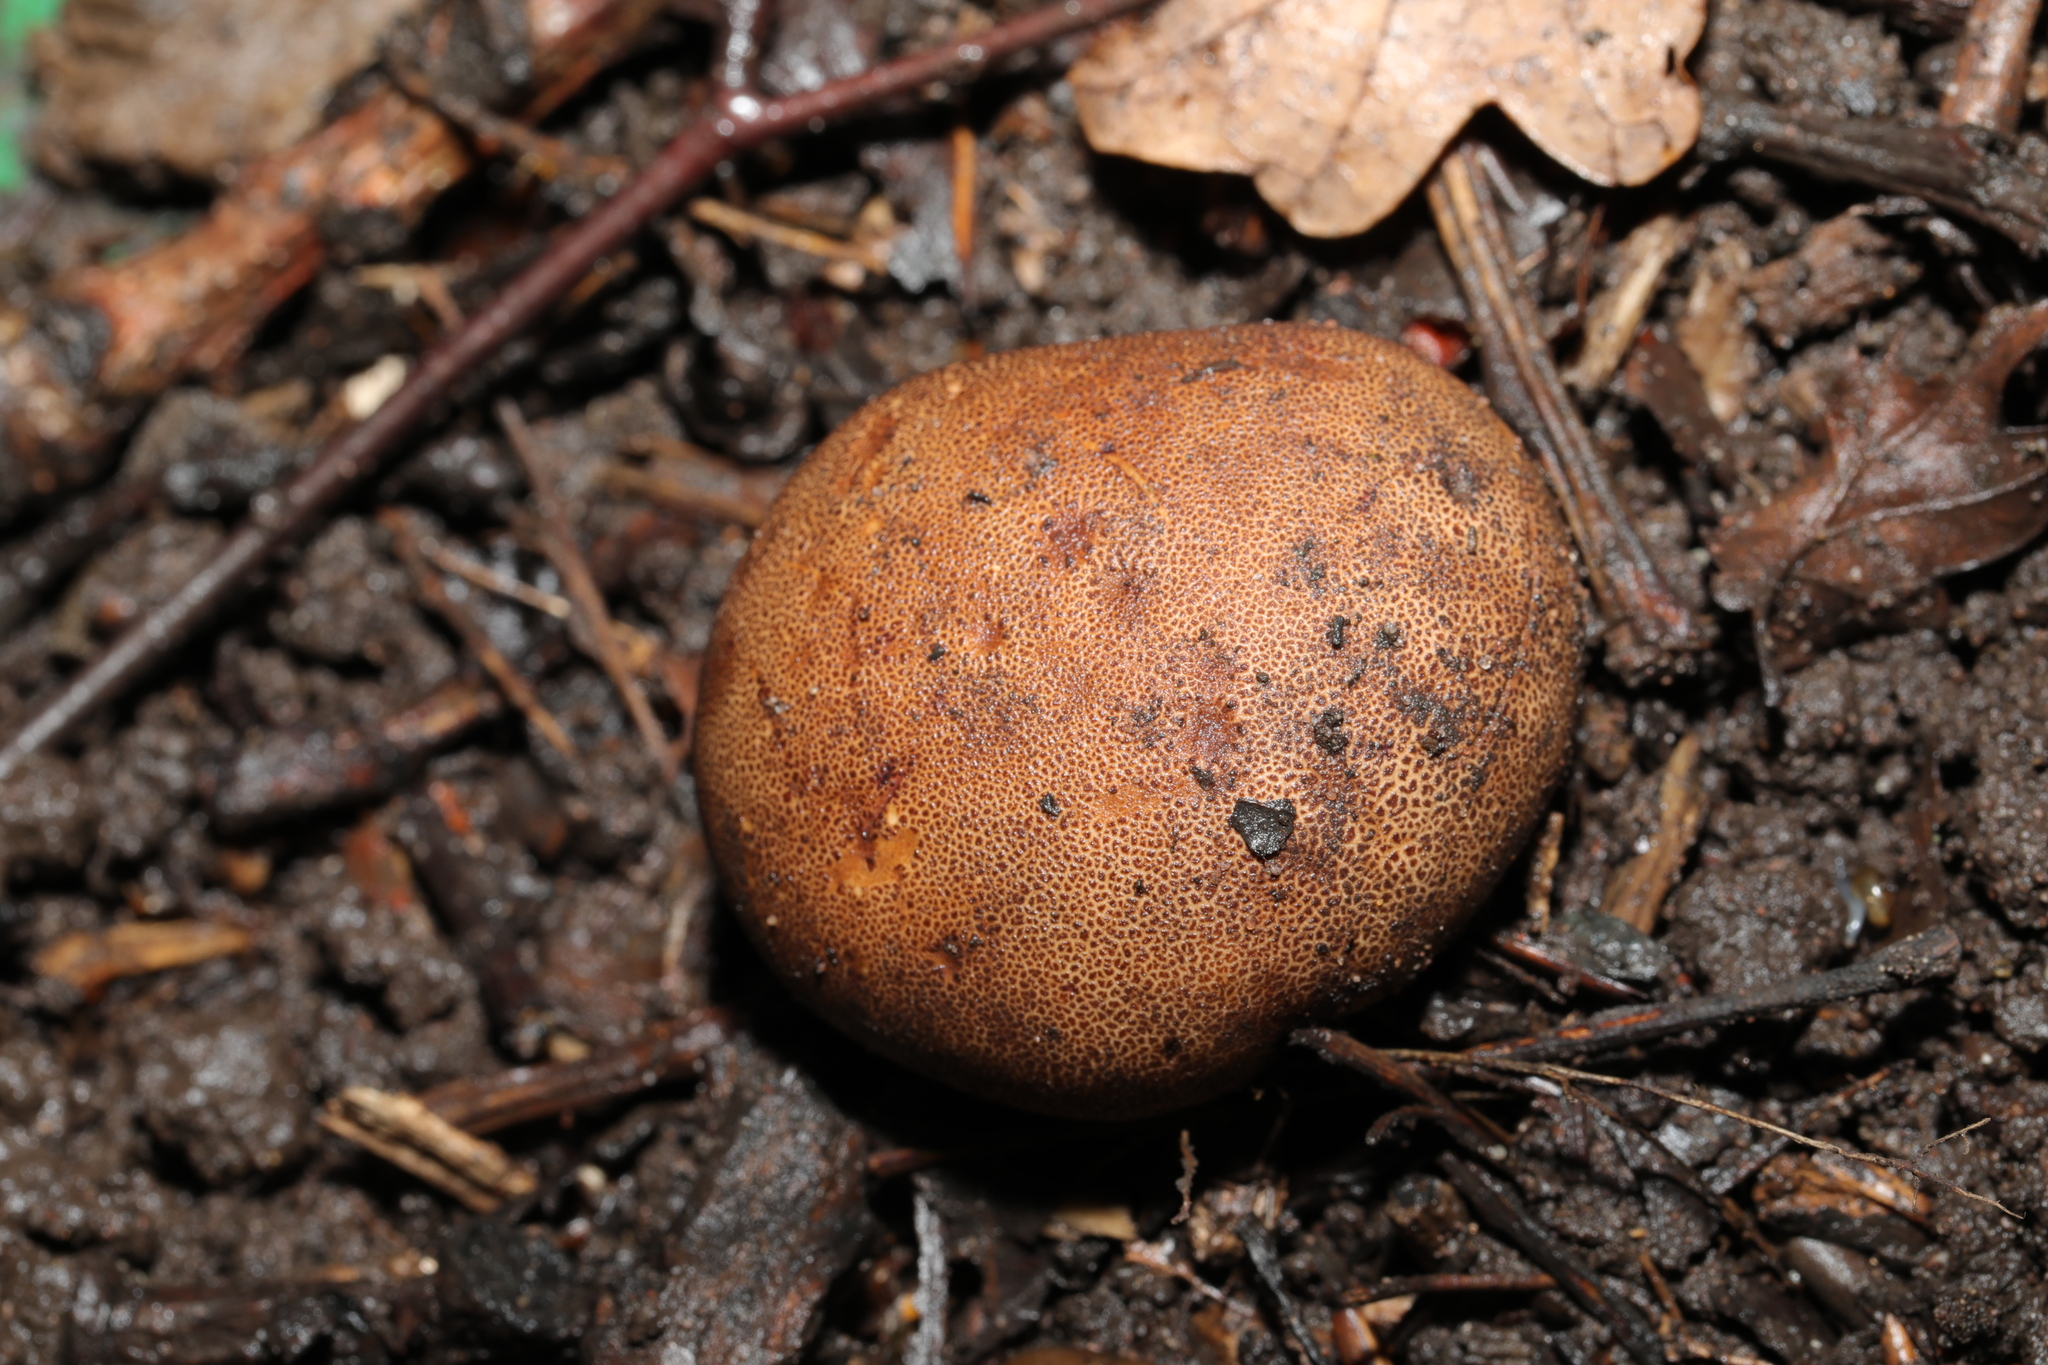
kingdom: Fungi
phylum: Basidiomycota
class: Agaricomycetes
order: Boletales
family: Sclerodermataceae
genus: Scleroderma
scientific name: Scleroderma citrinum
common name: Common earthball
